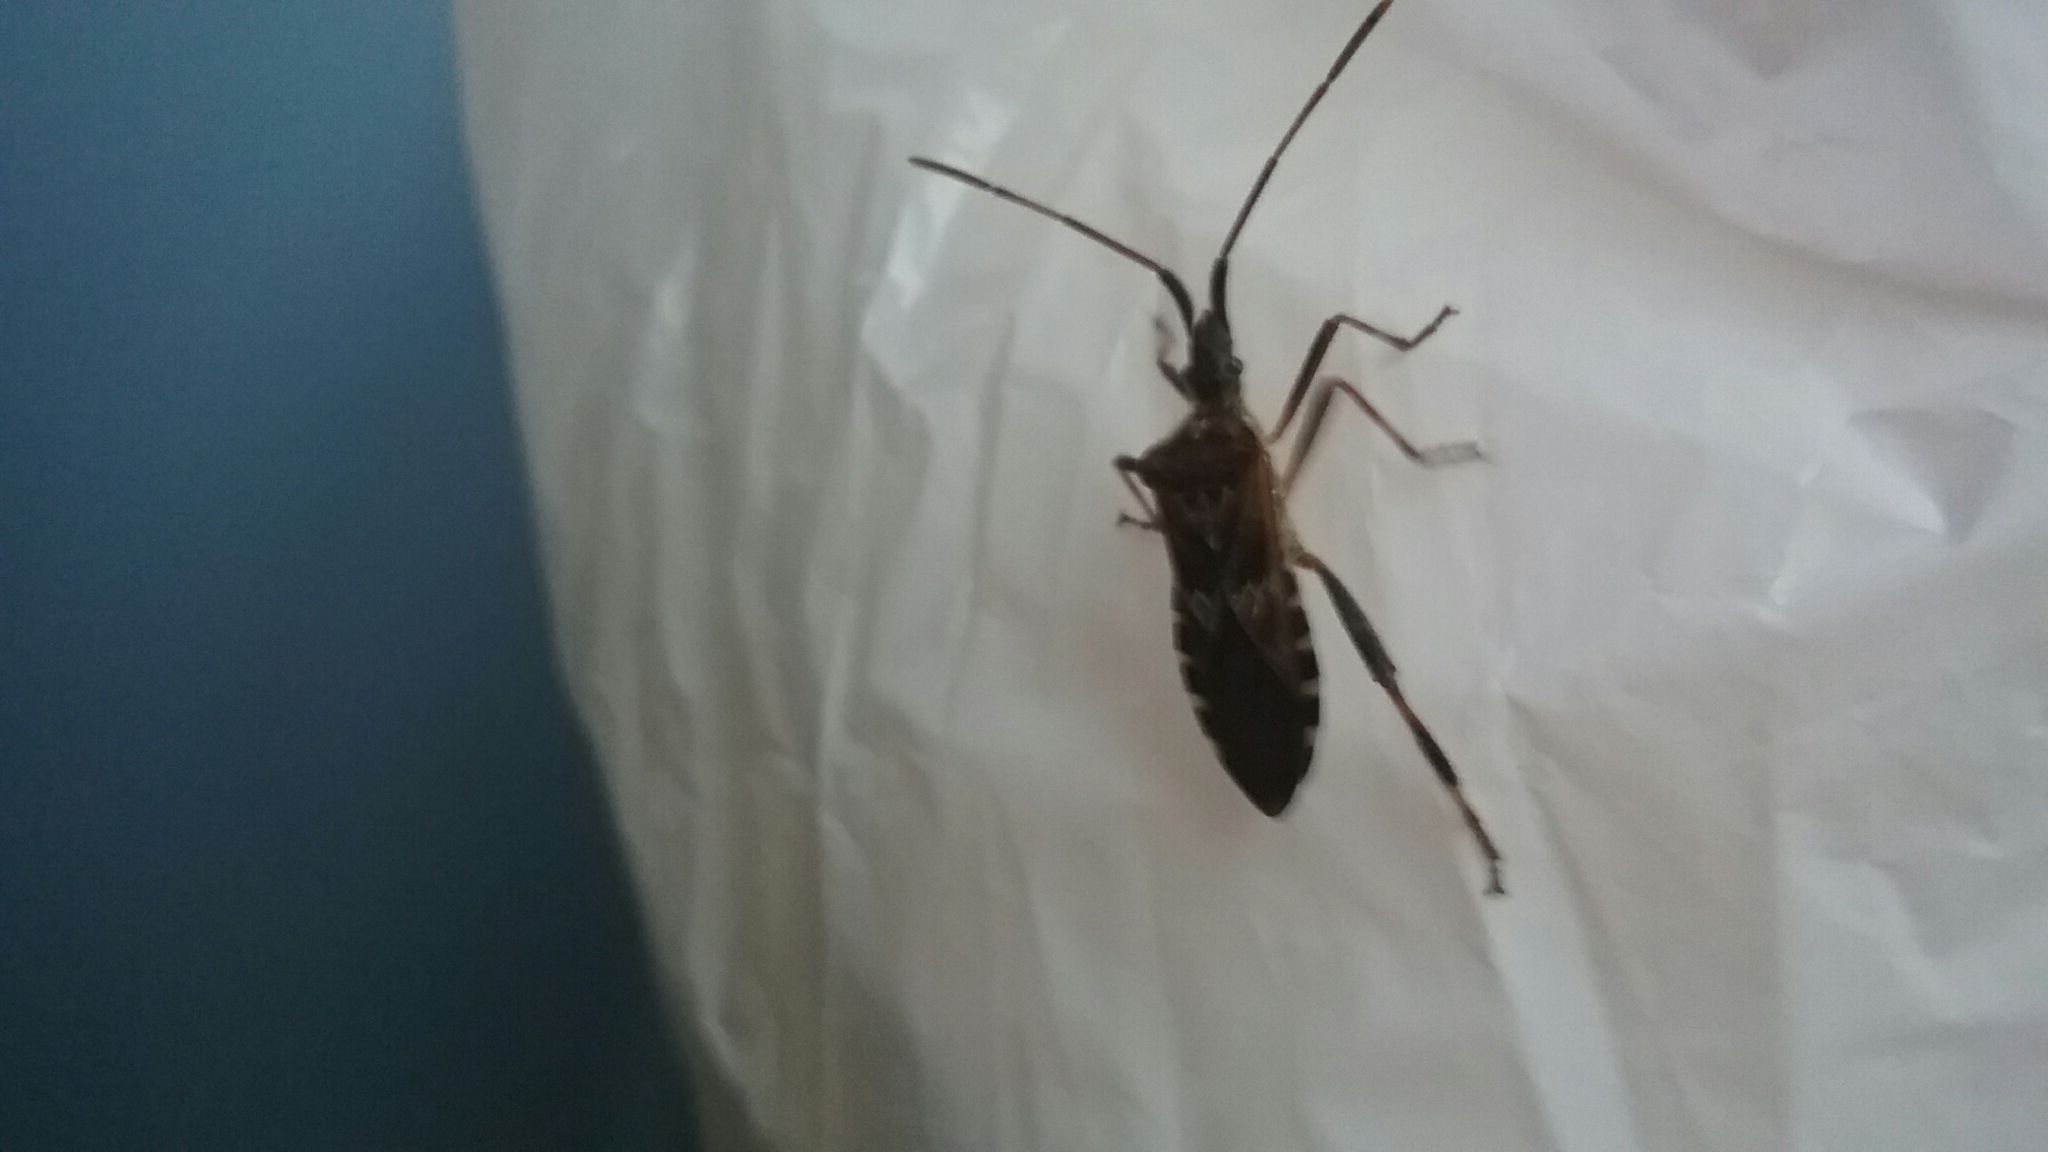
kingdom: Animalia
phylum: Arthropoda
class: Insecta
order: Hemiptera
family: Coreidae
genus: Leptoglossus
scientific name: Leptoglossus occidentalis
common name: Western conifer-seed bug
